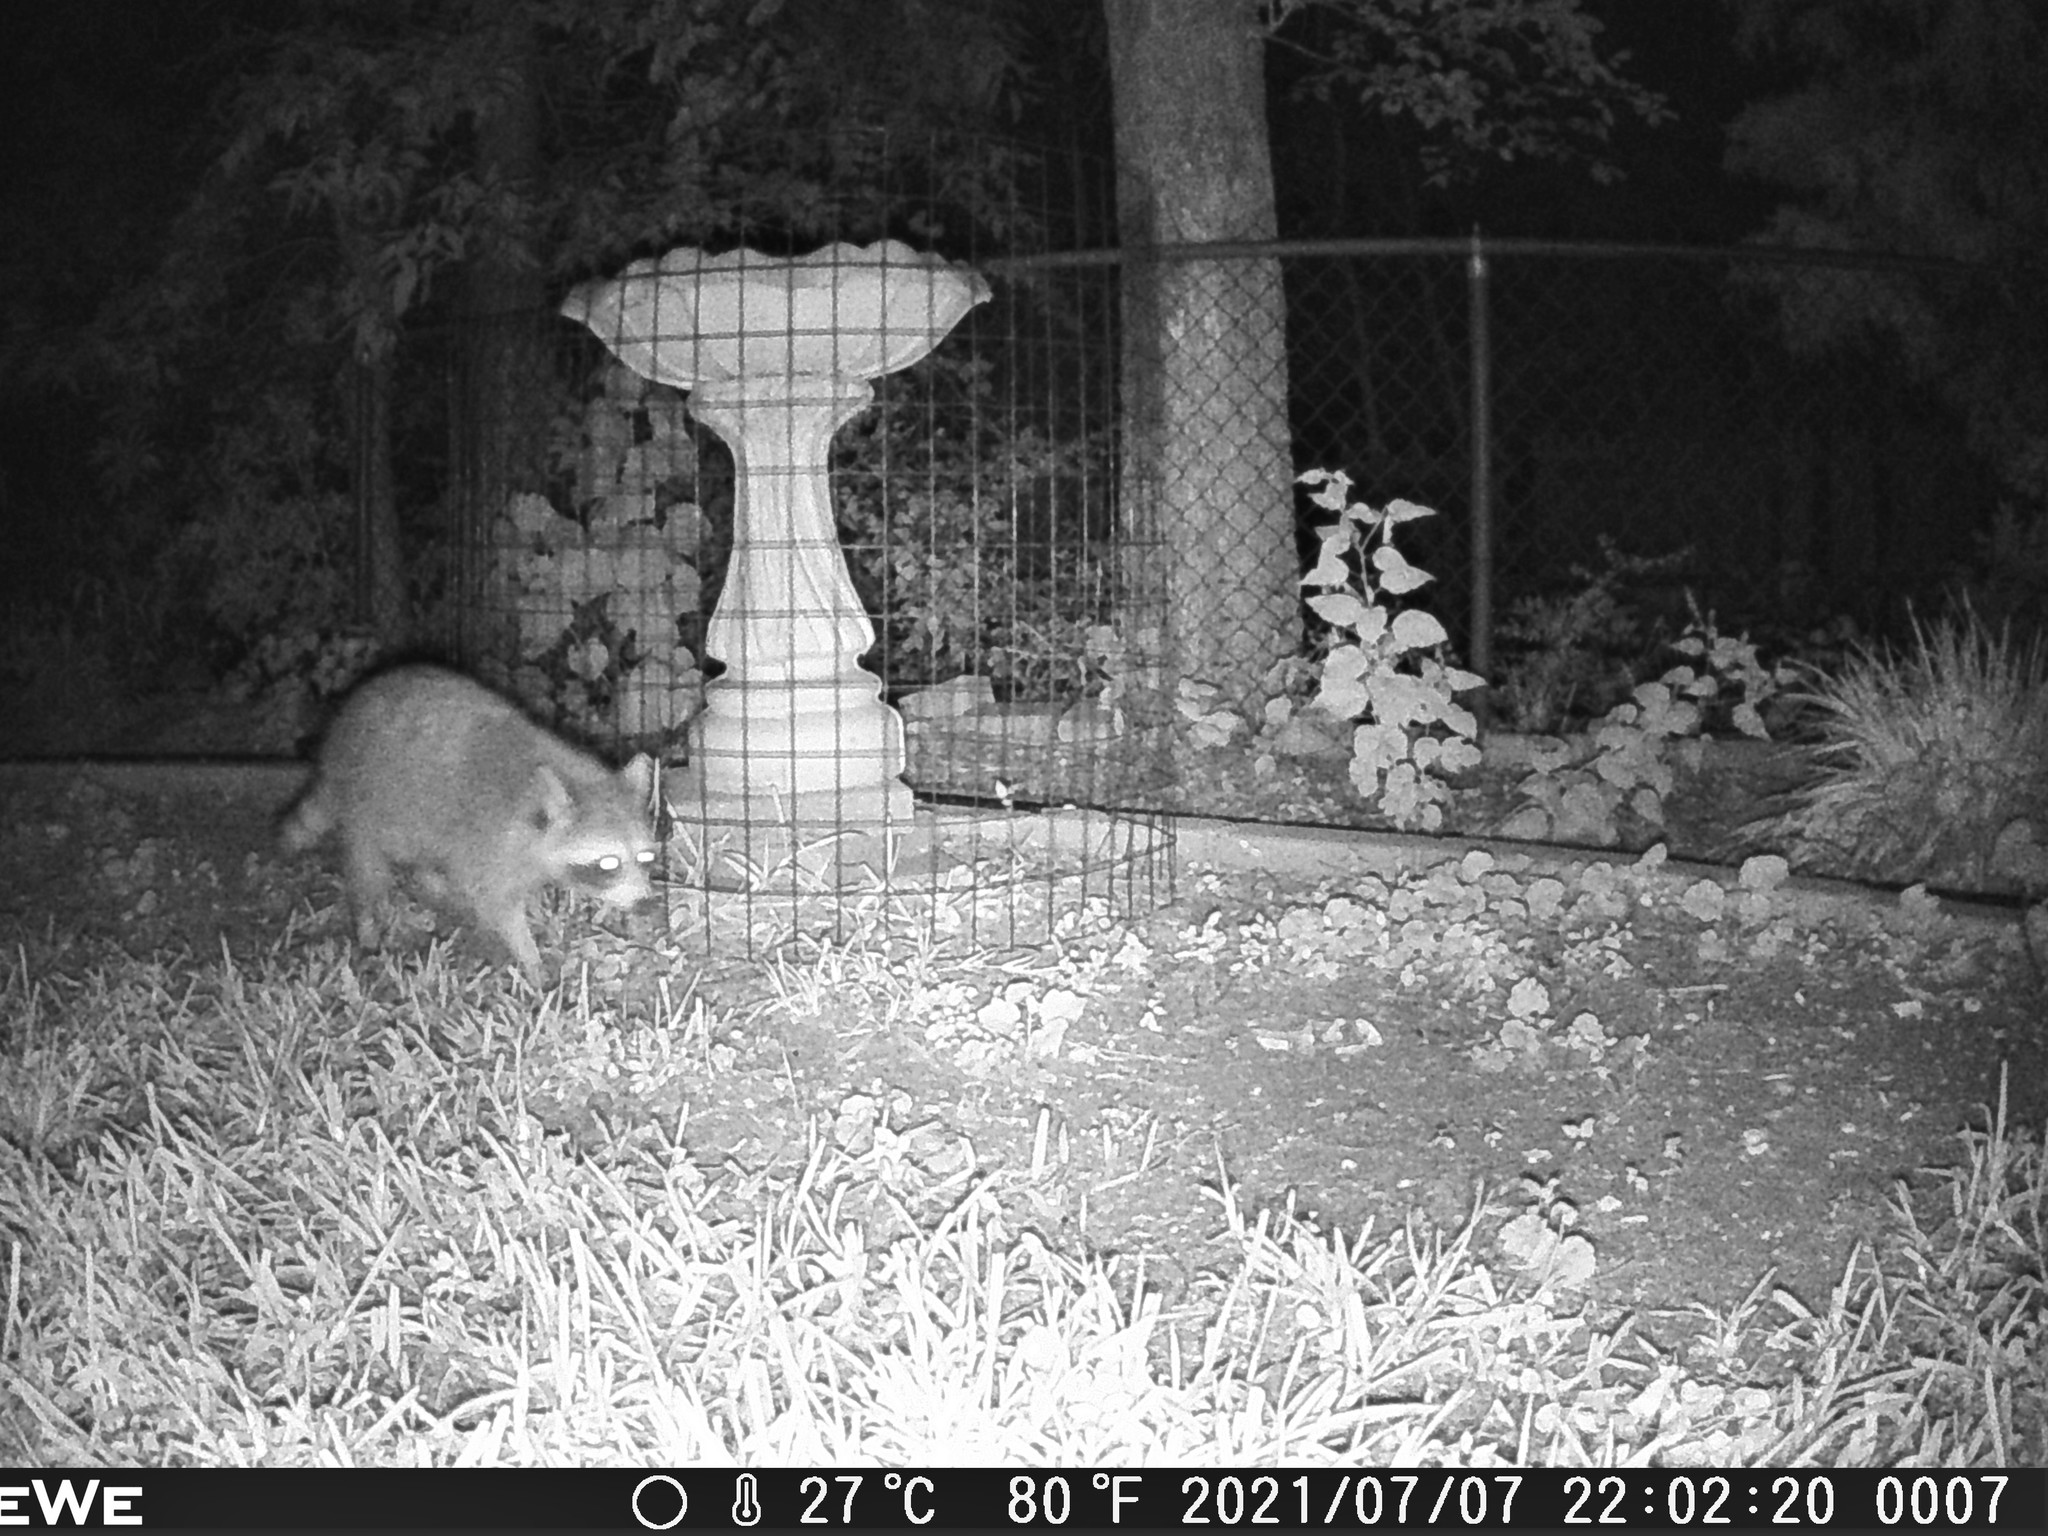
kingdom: Animalia
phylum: Chordata
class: Mammalia
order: Carnivora
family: Procyonidae
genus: Procyon
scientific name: Procyon lotor
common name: Raccoon
